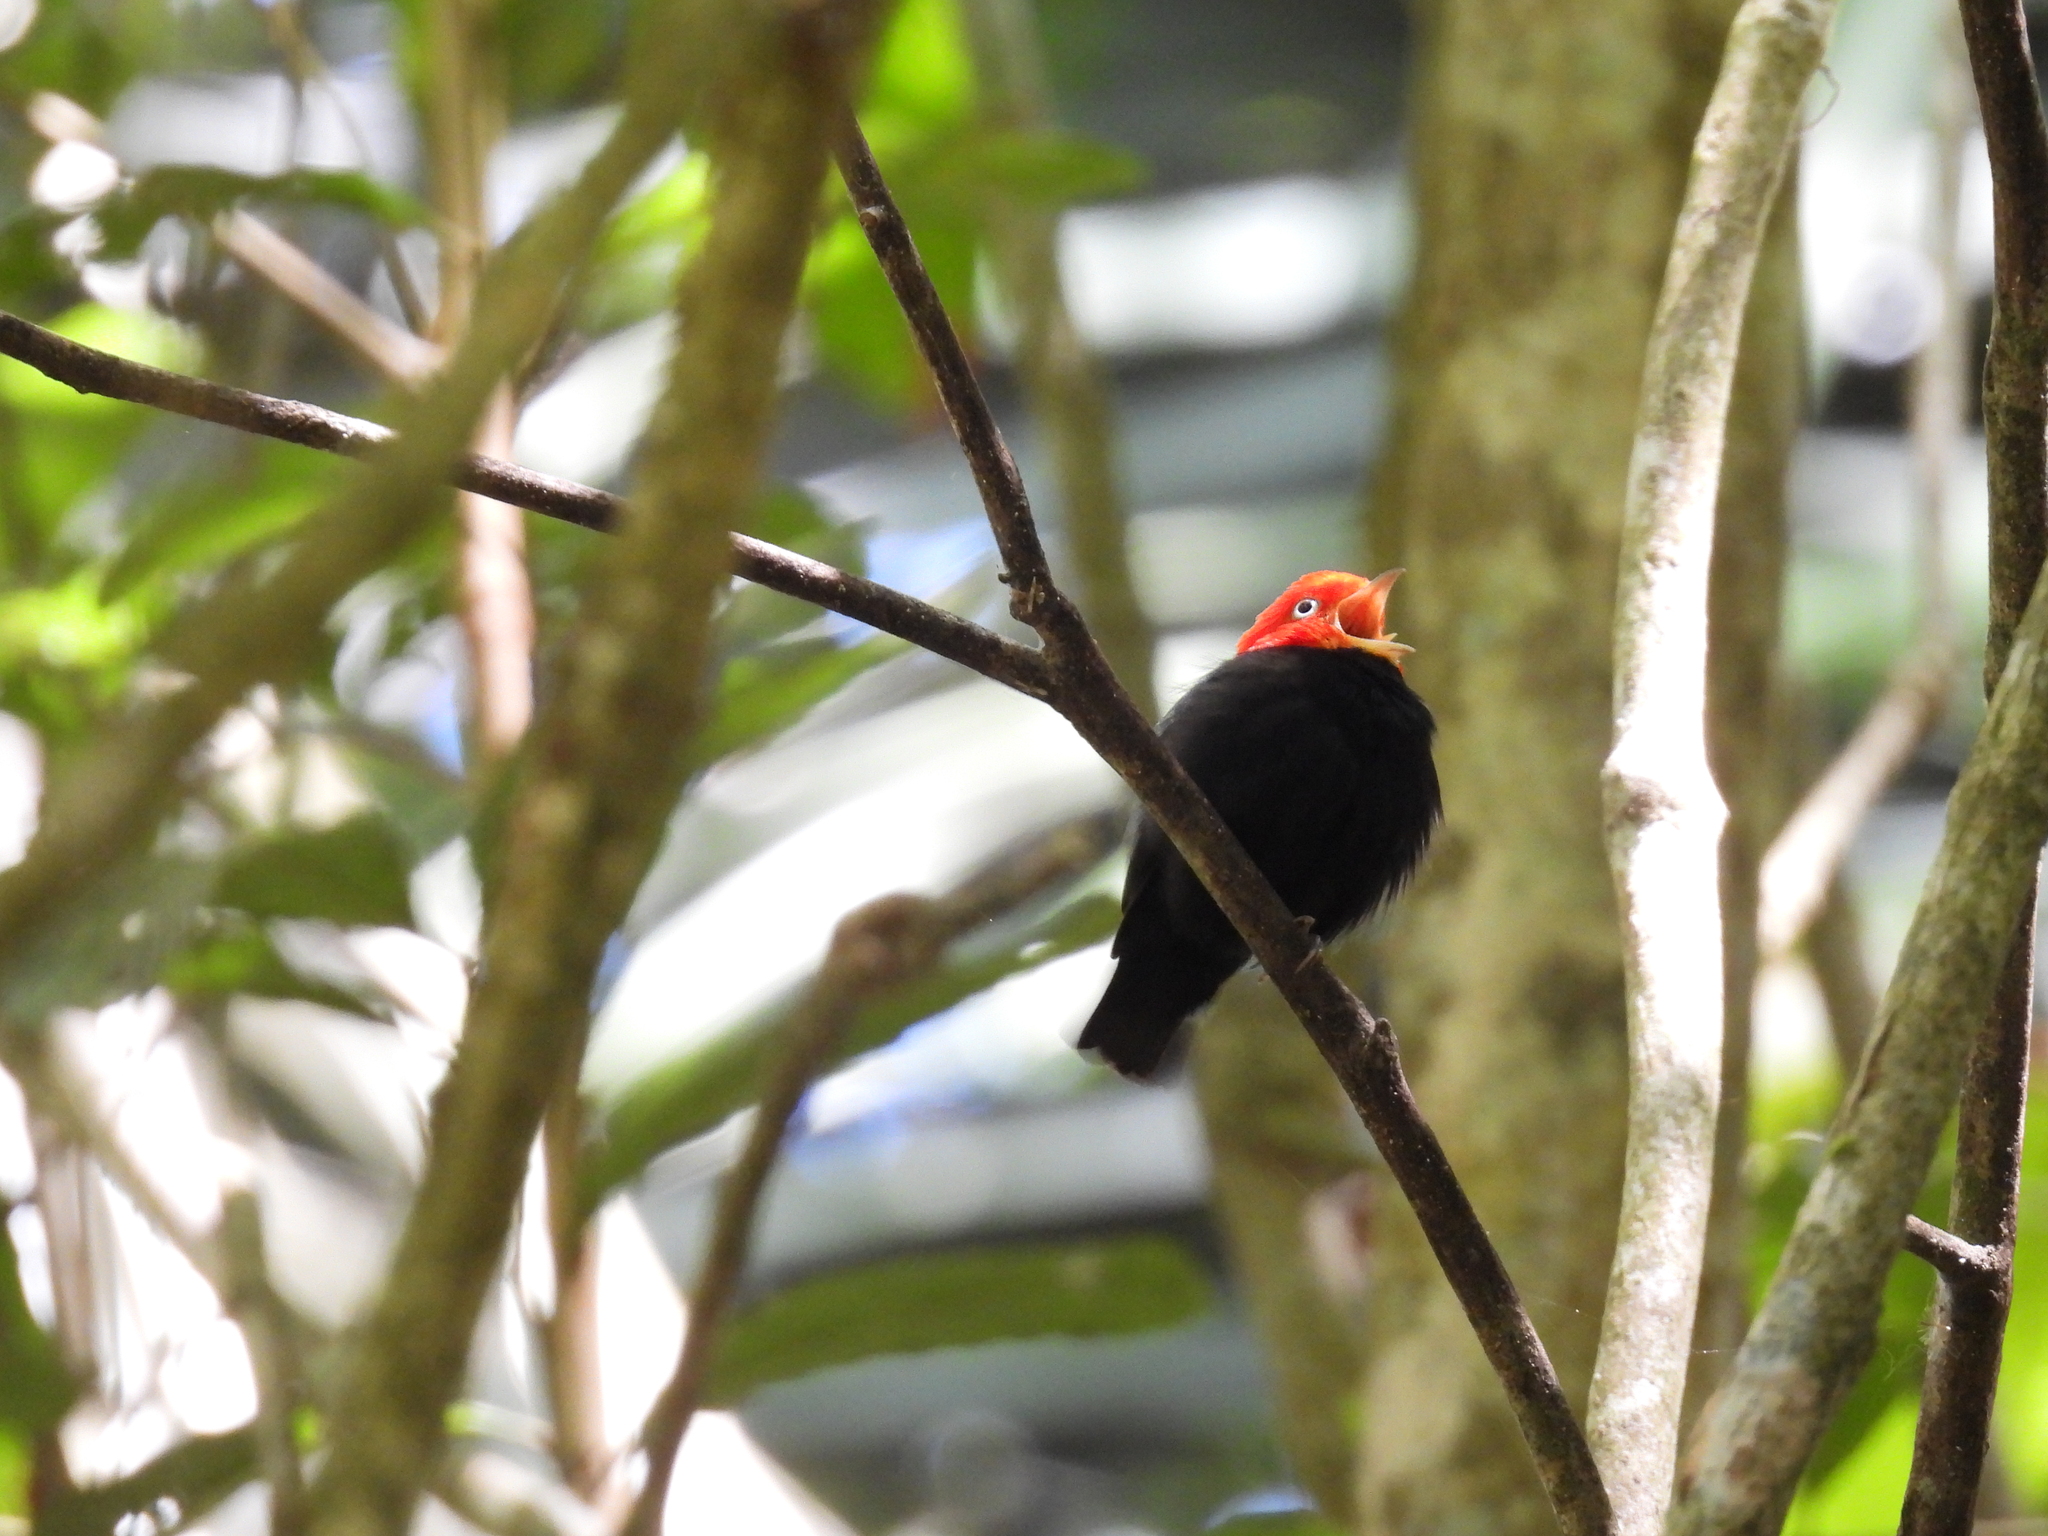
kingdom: Animalia
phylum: Chordata
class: Aves
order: Passeriformes
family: Pipridae
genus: Pipra
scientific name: Pipra mentalis
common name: Red-capped manakin
